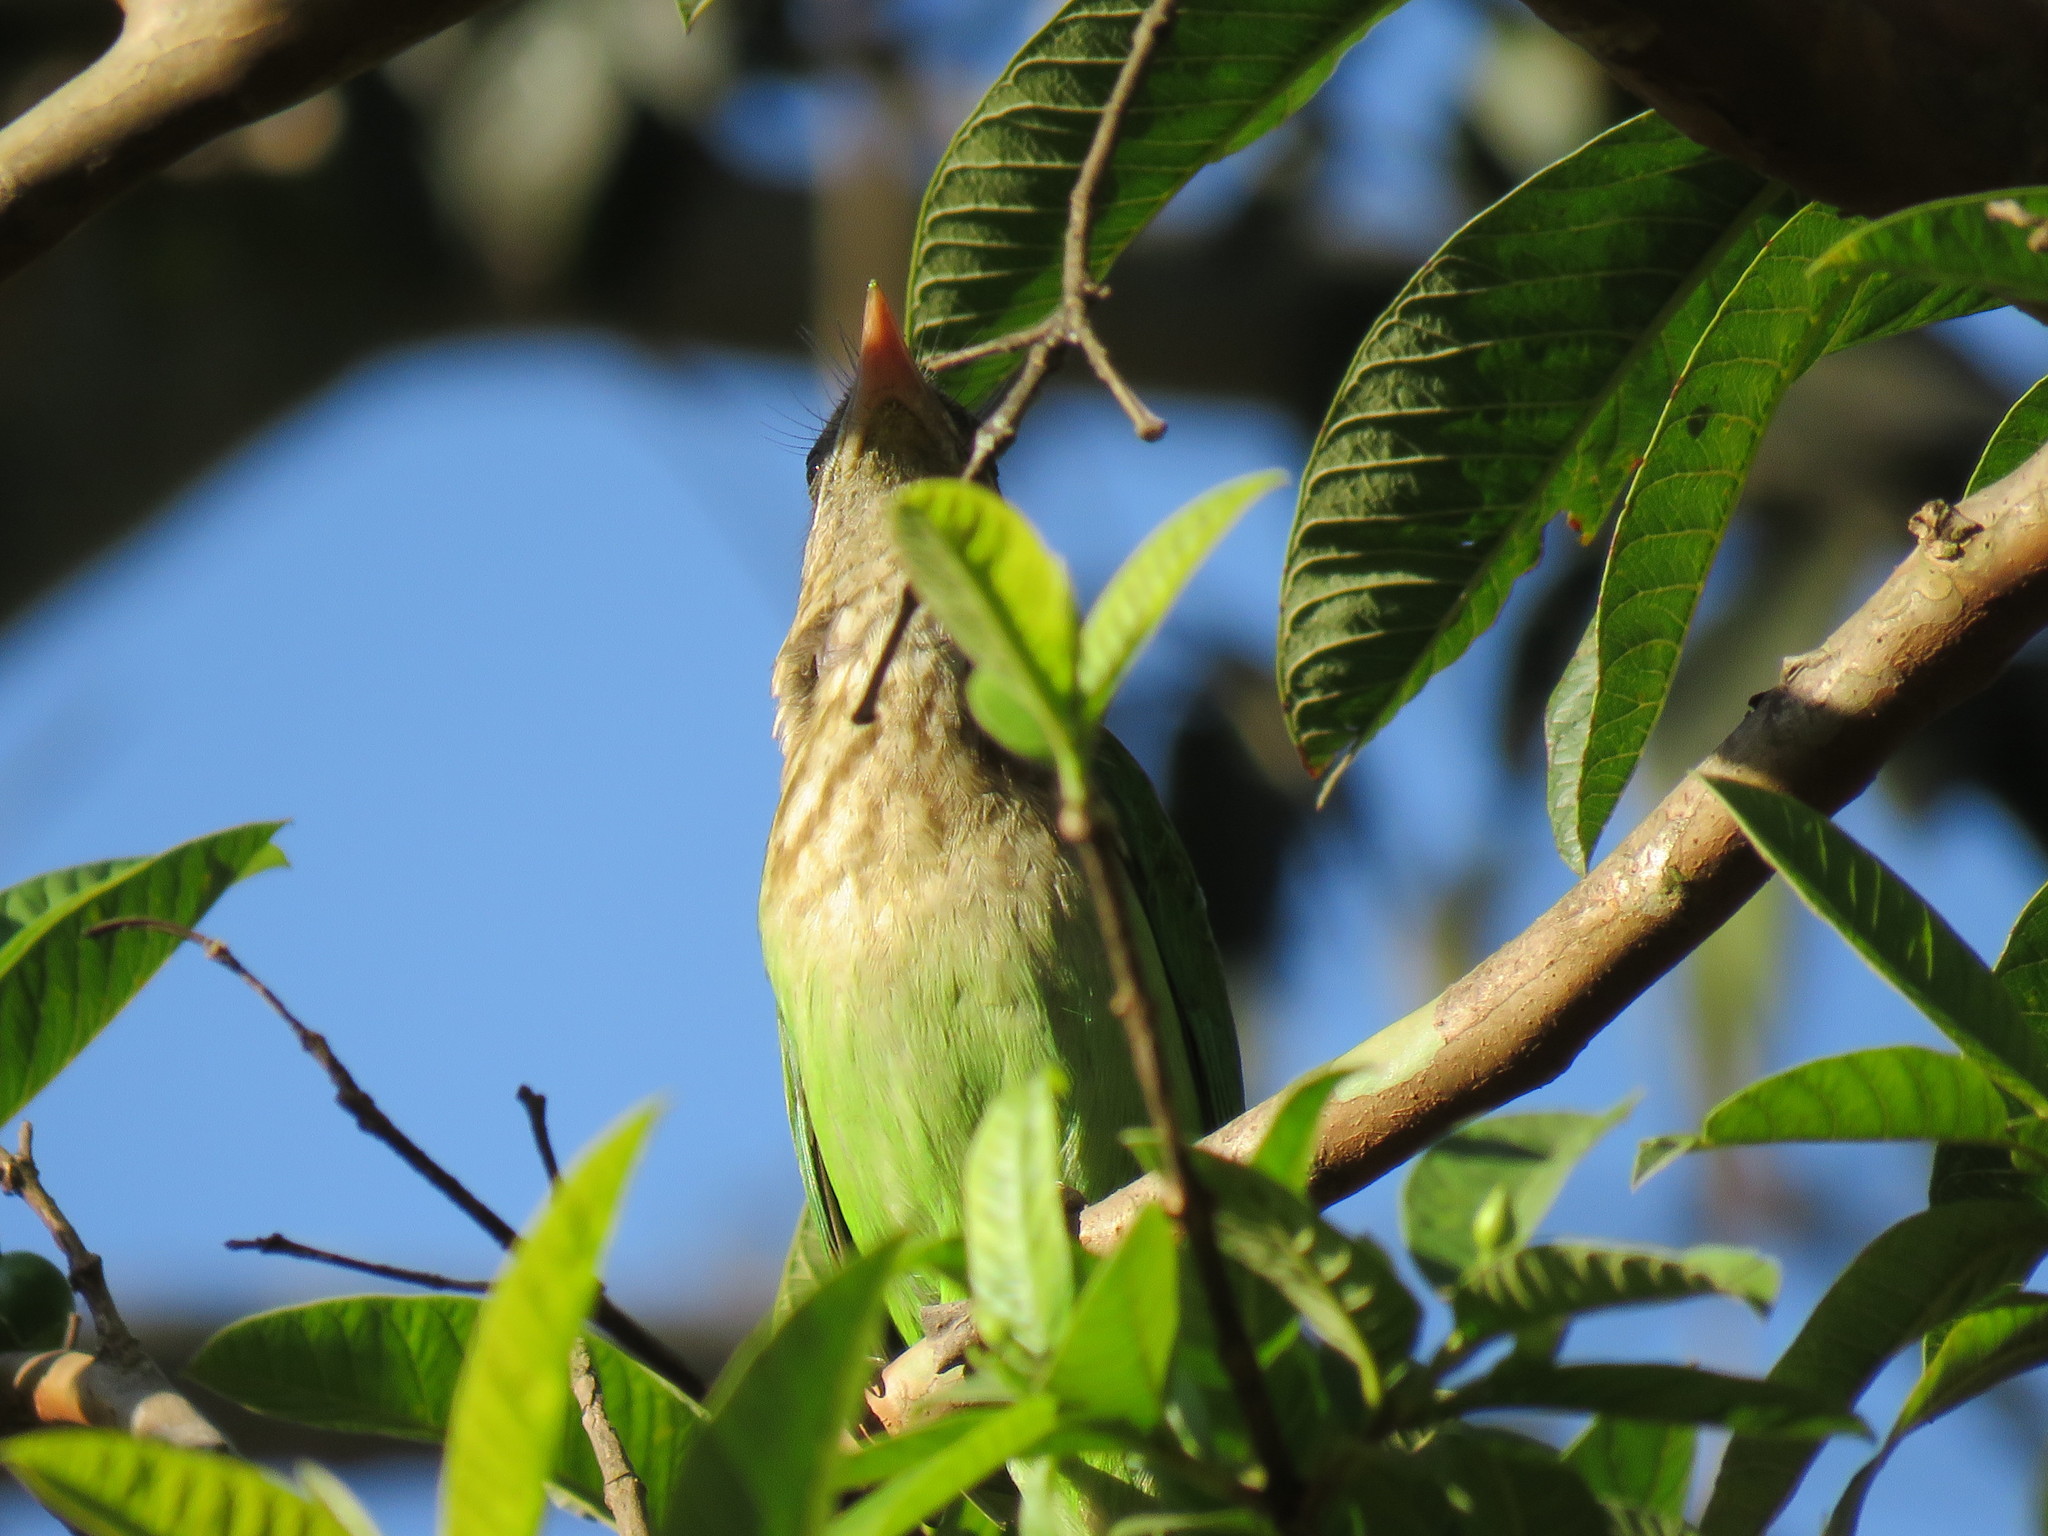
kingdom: Animalia
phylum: Chordata
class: Aves
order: Piciformes
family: Megalaimidae
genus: Psilopogon
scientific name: Psilopogon viridis
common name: White-cheeked barbet
